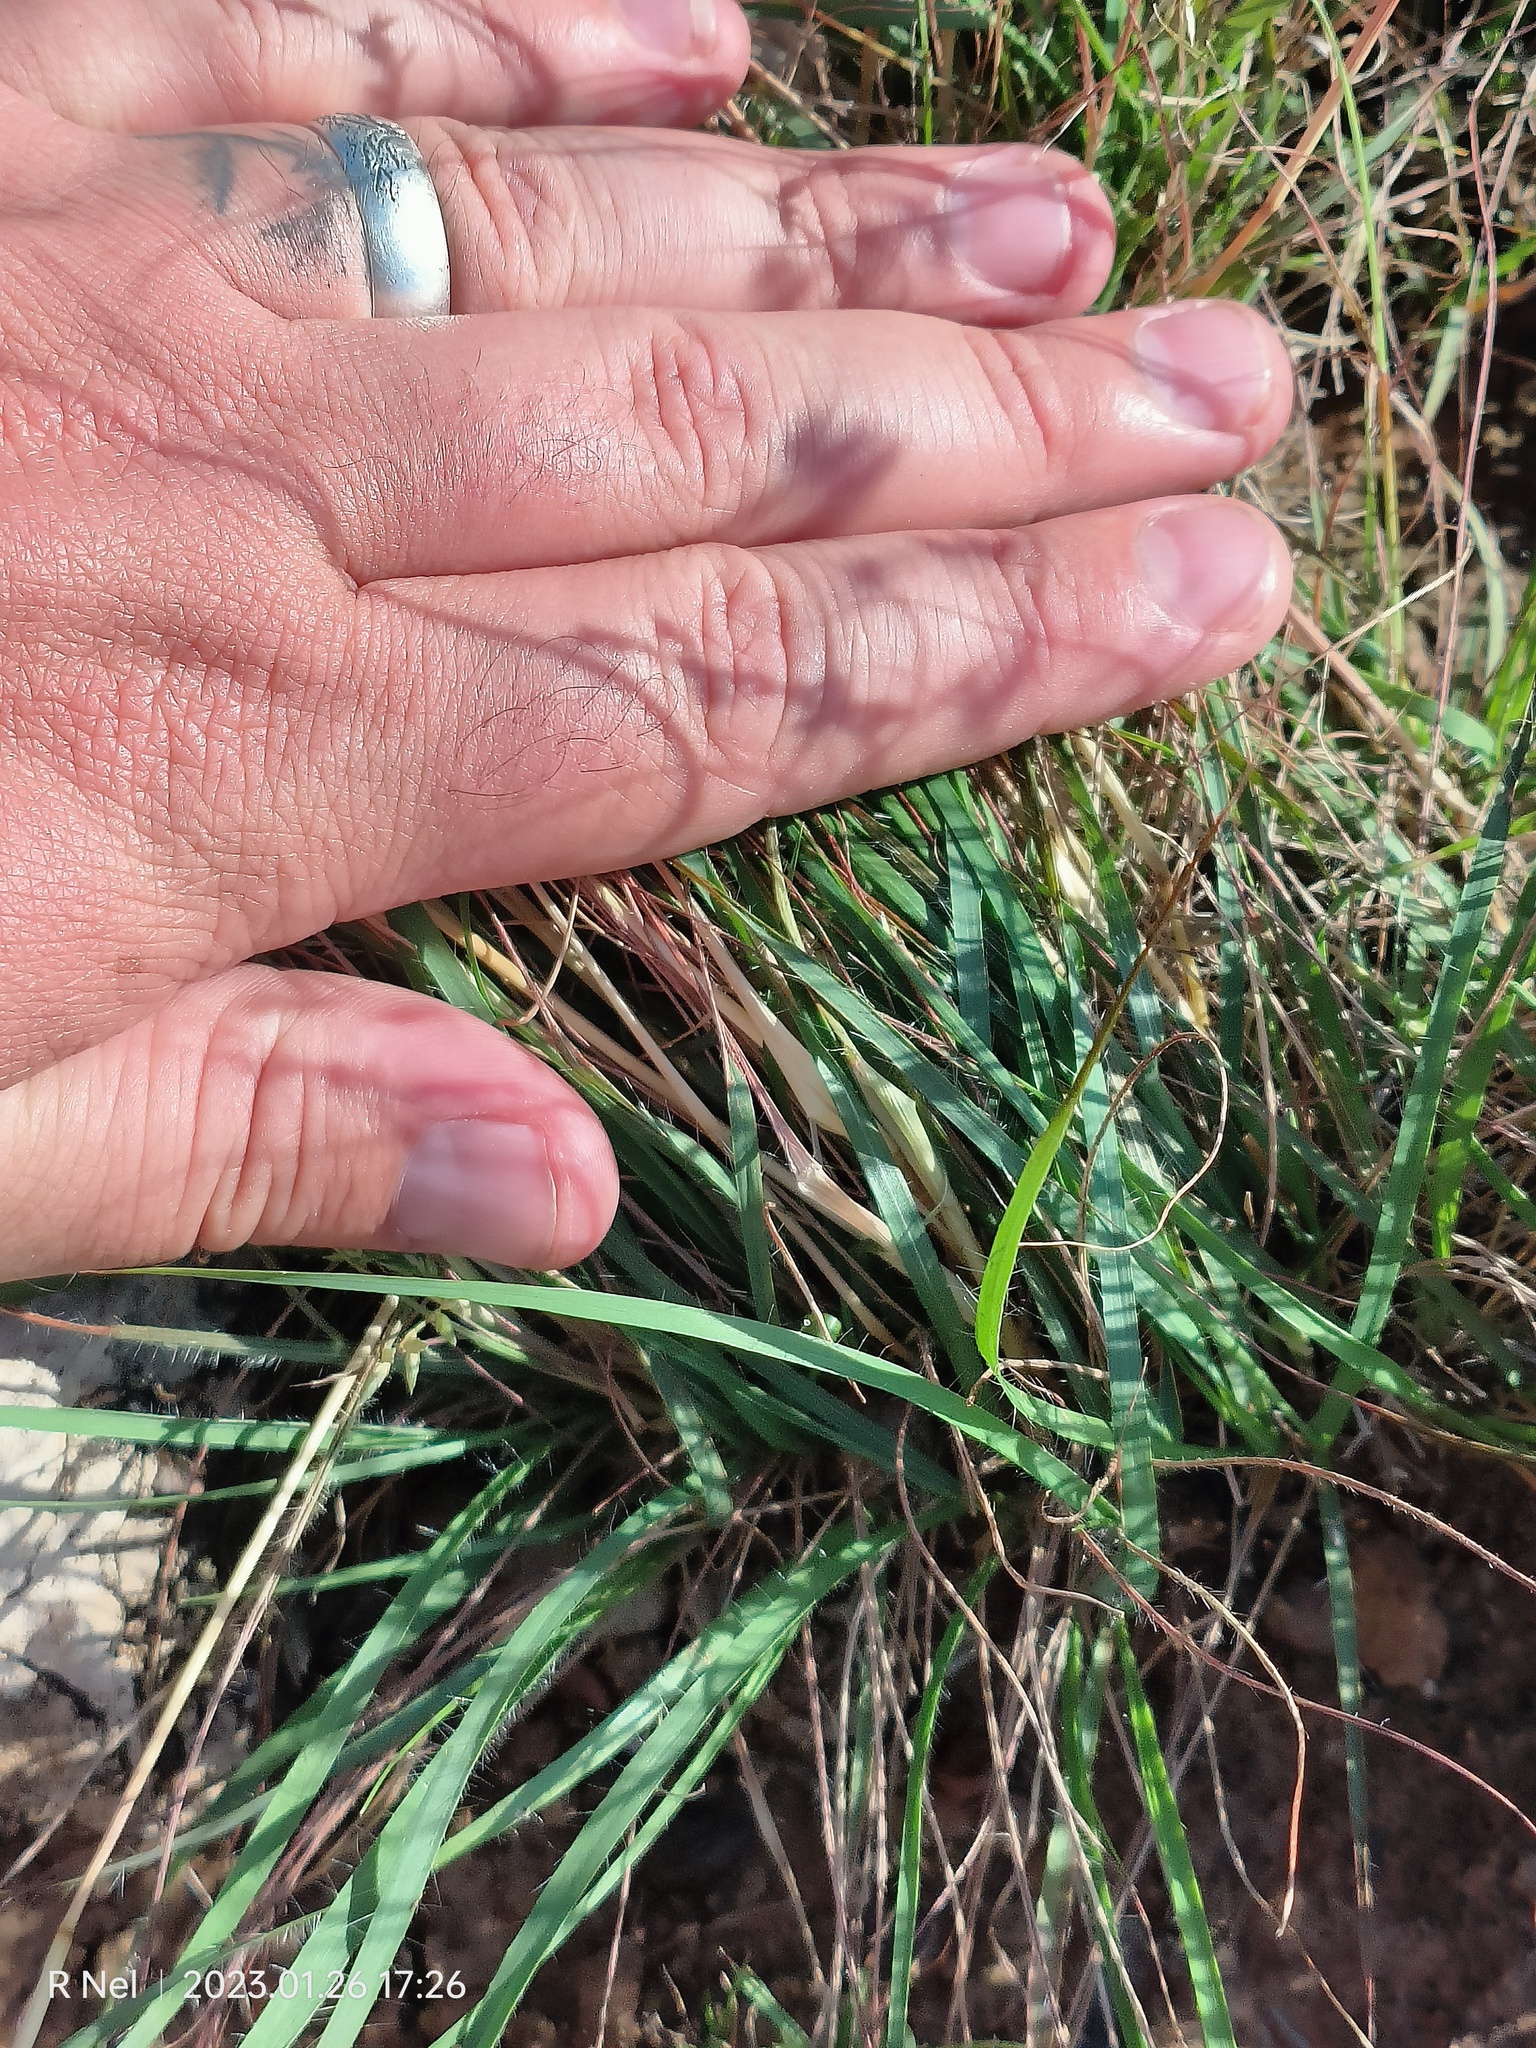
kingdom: Plantae
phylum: Tracheophyta
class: Liliopsida
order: Poales
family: Poaceae
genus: Eragrostis
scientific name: Eragrostis nindensis
